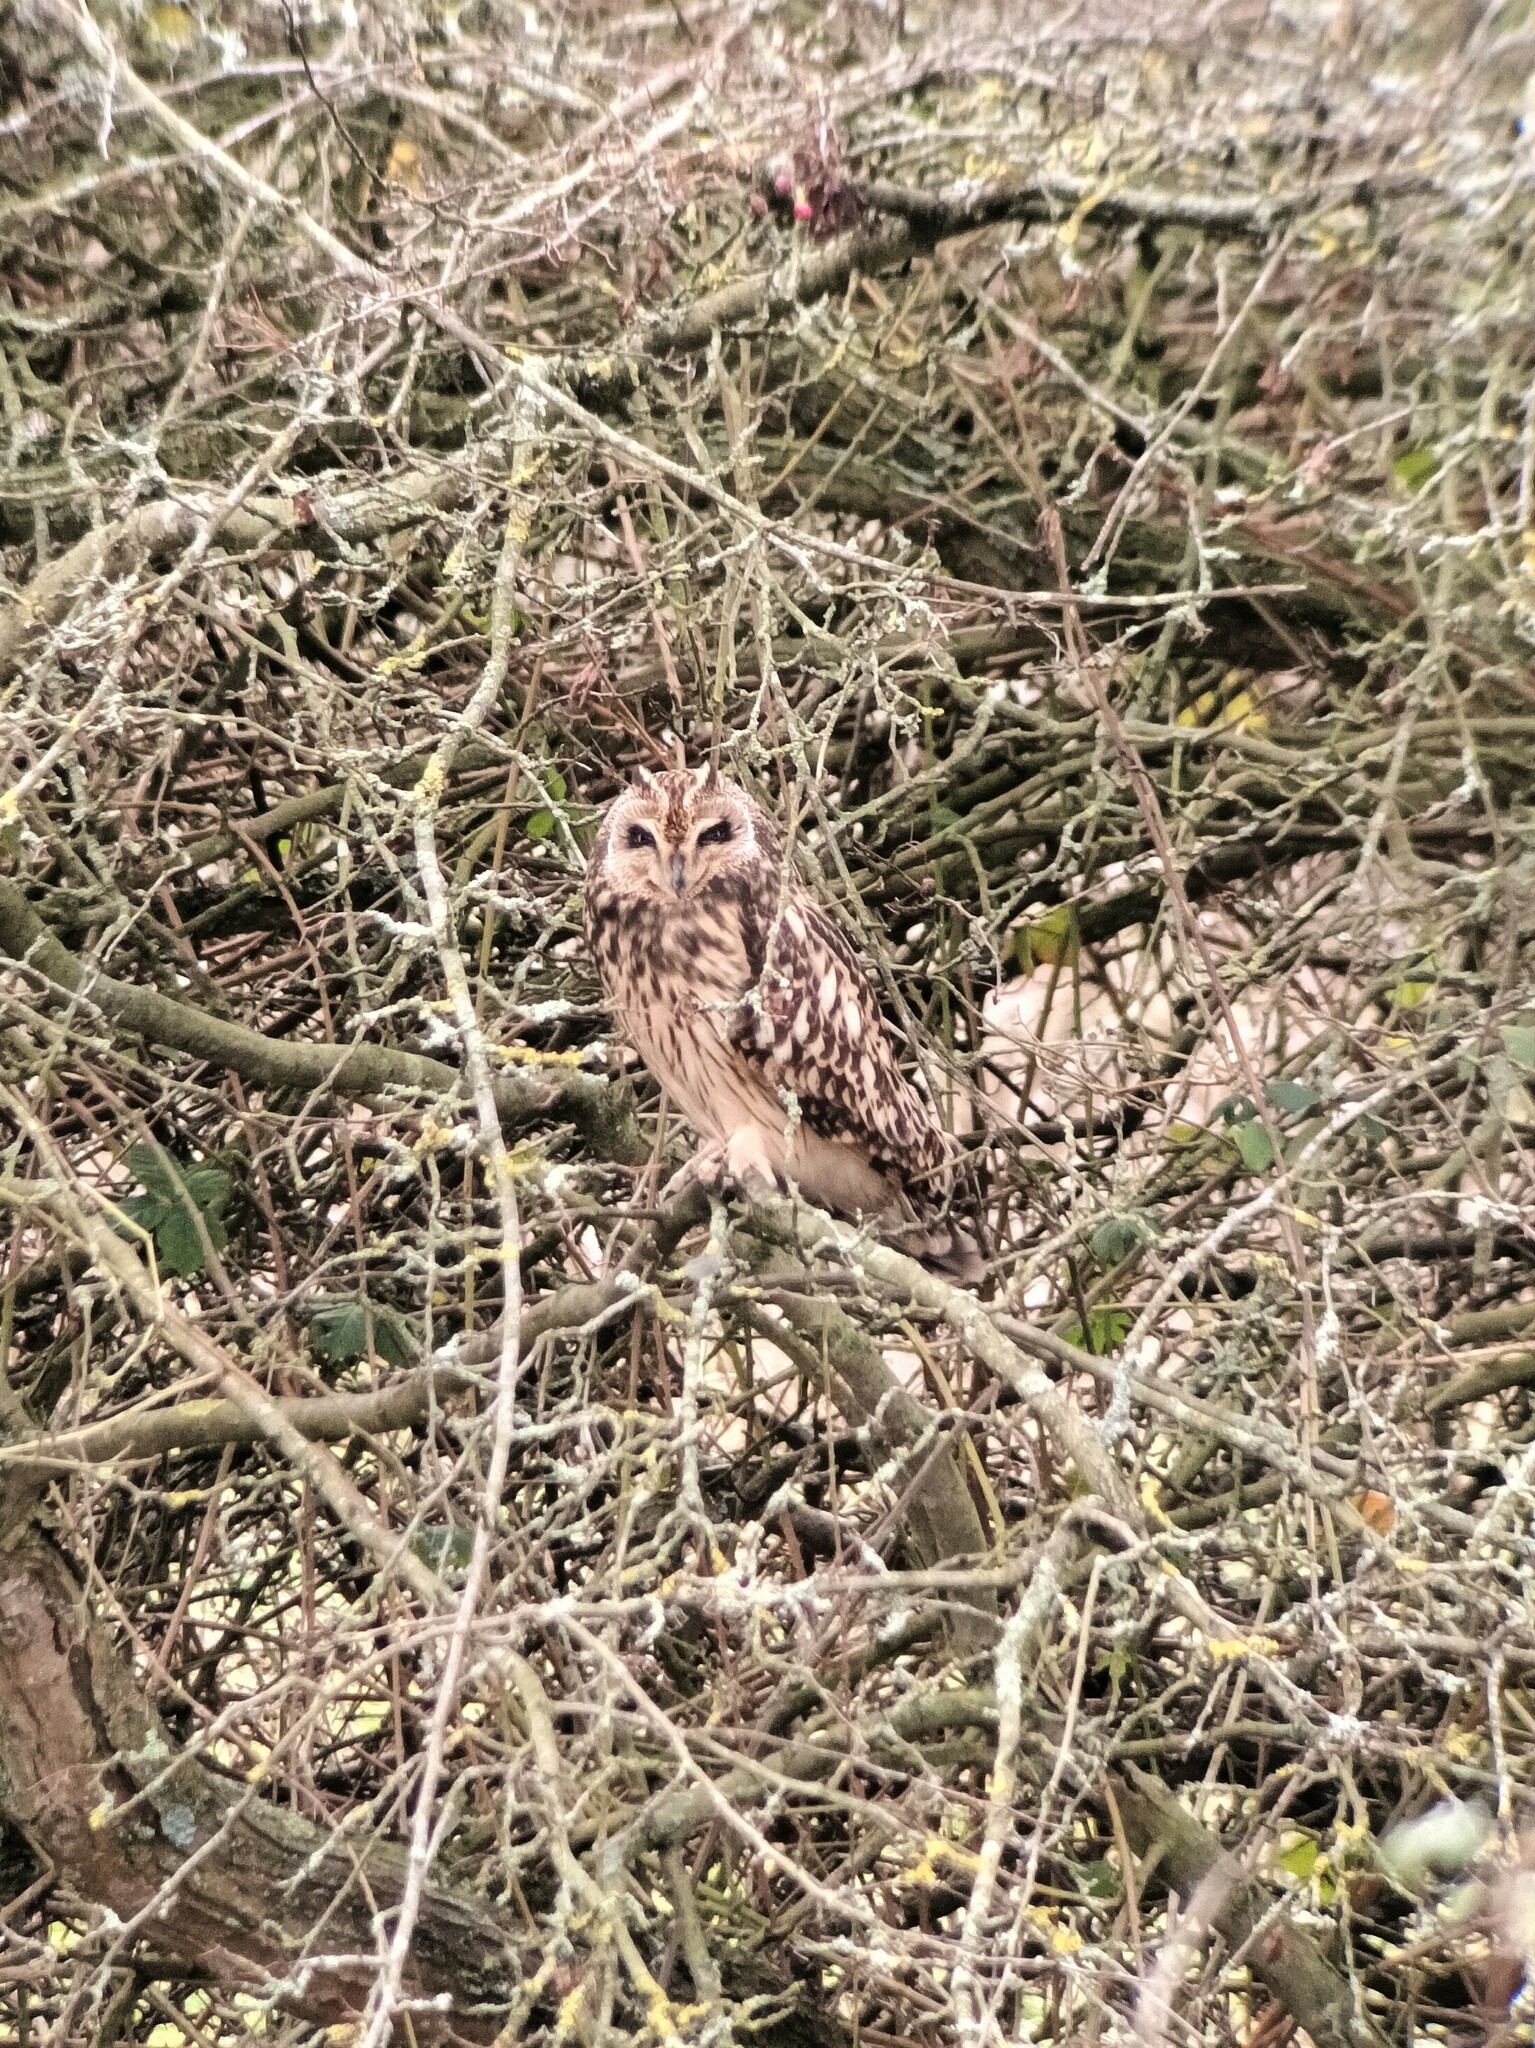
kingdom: Animalia
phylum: Chordata
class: Aves
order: Strigiformes
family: Strigidae
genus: Asio
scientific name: Asio flammeus
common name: Short-eared owl
